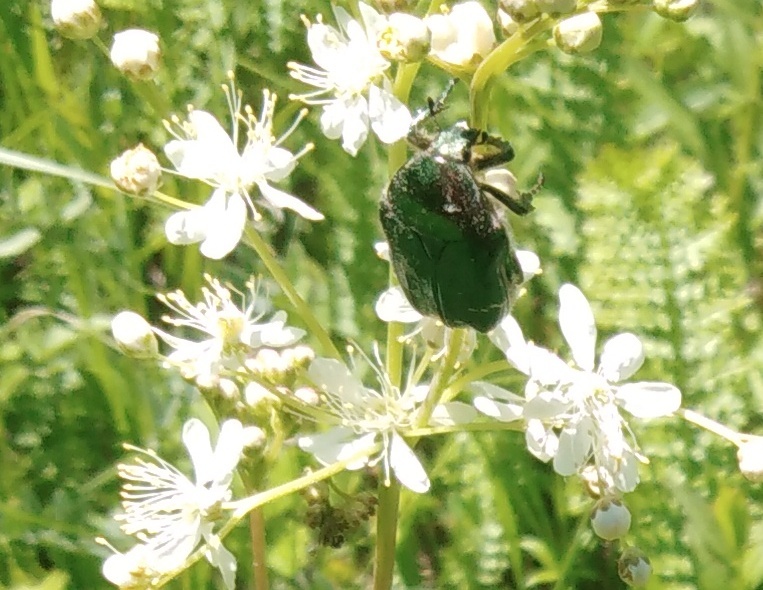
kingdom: Animalia
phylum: Arthropoda
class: Insecta
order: Coleoptera
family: Scarabaeidae
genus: Cetonia
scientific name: Cetonia aurata
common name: Rose chafer
